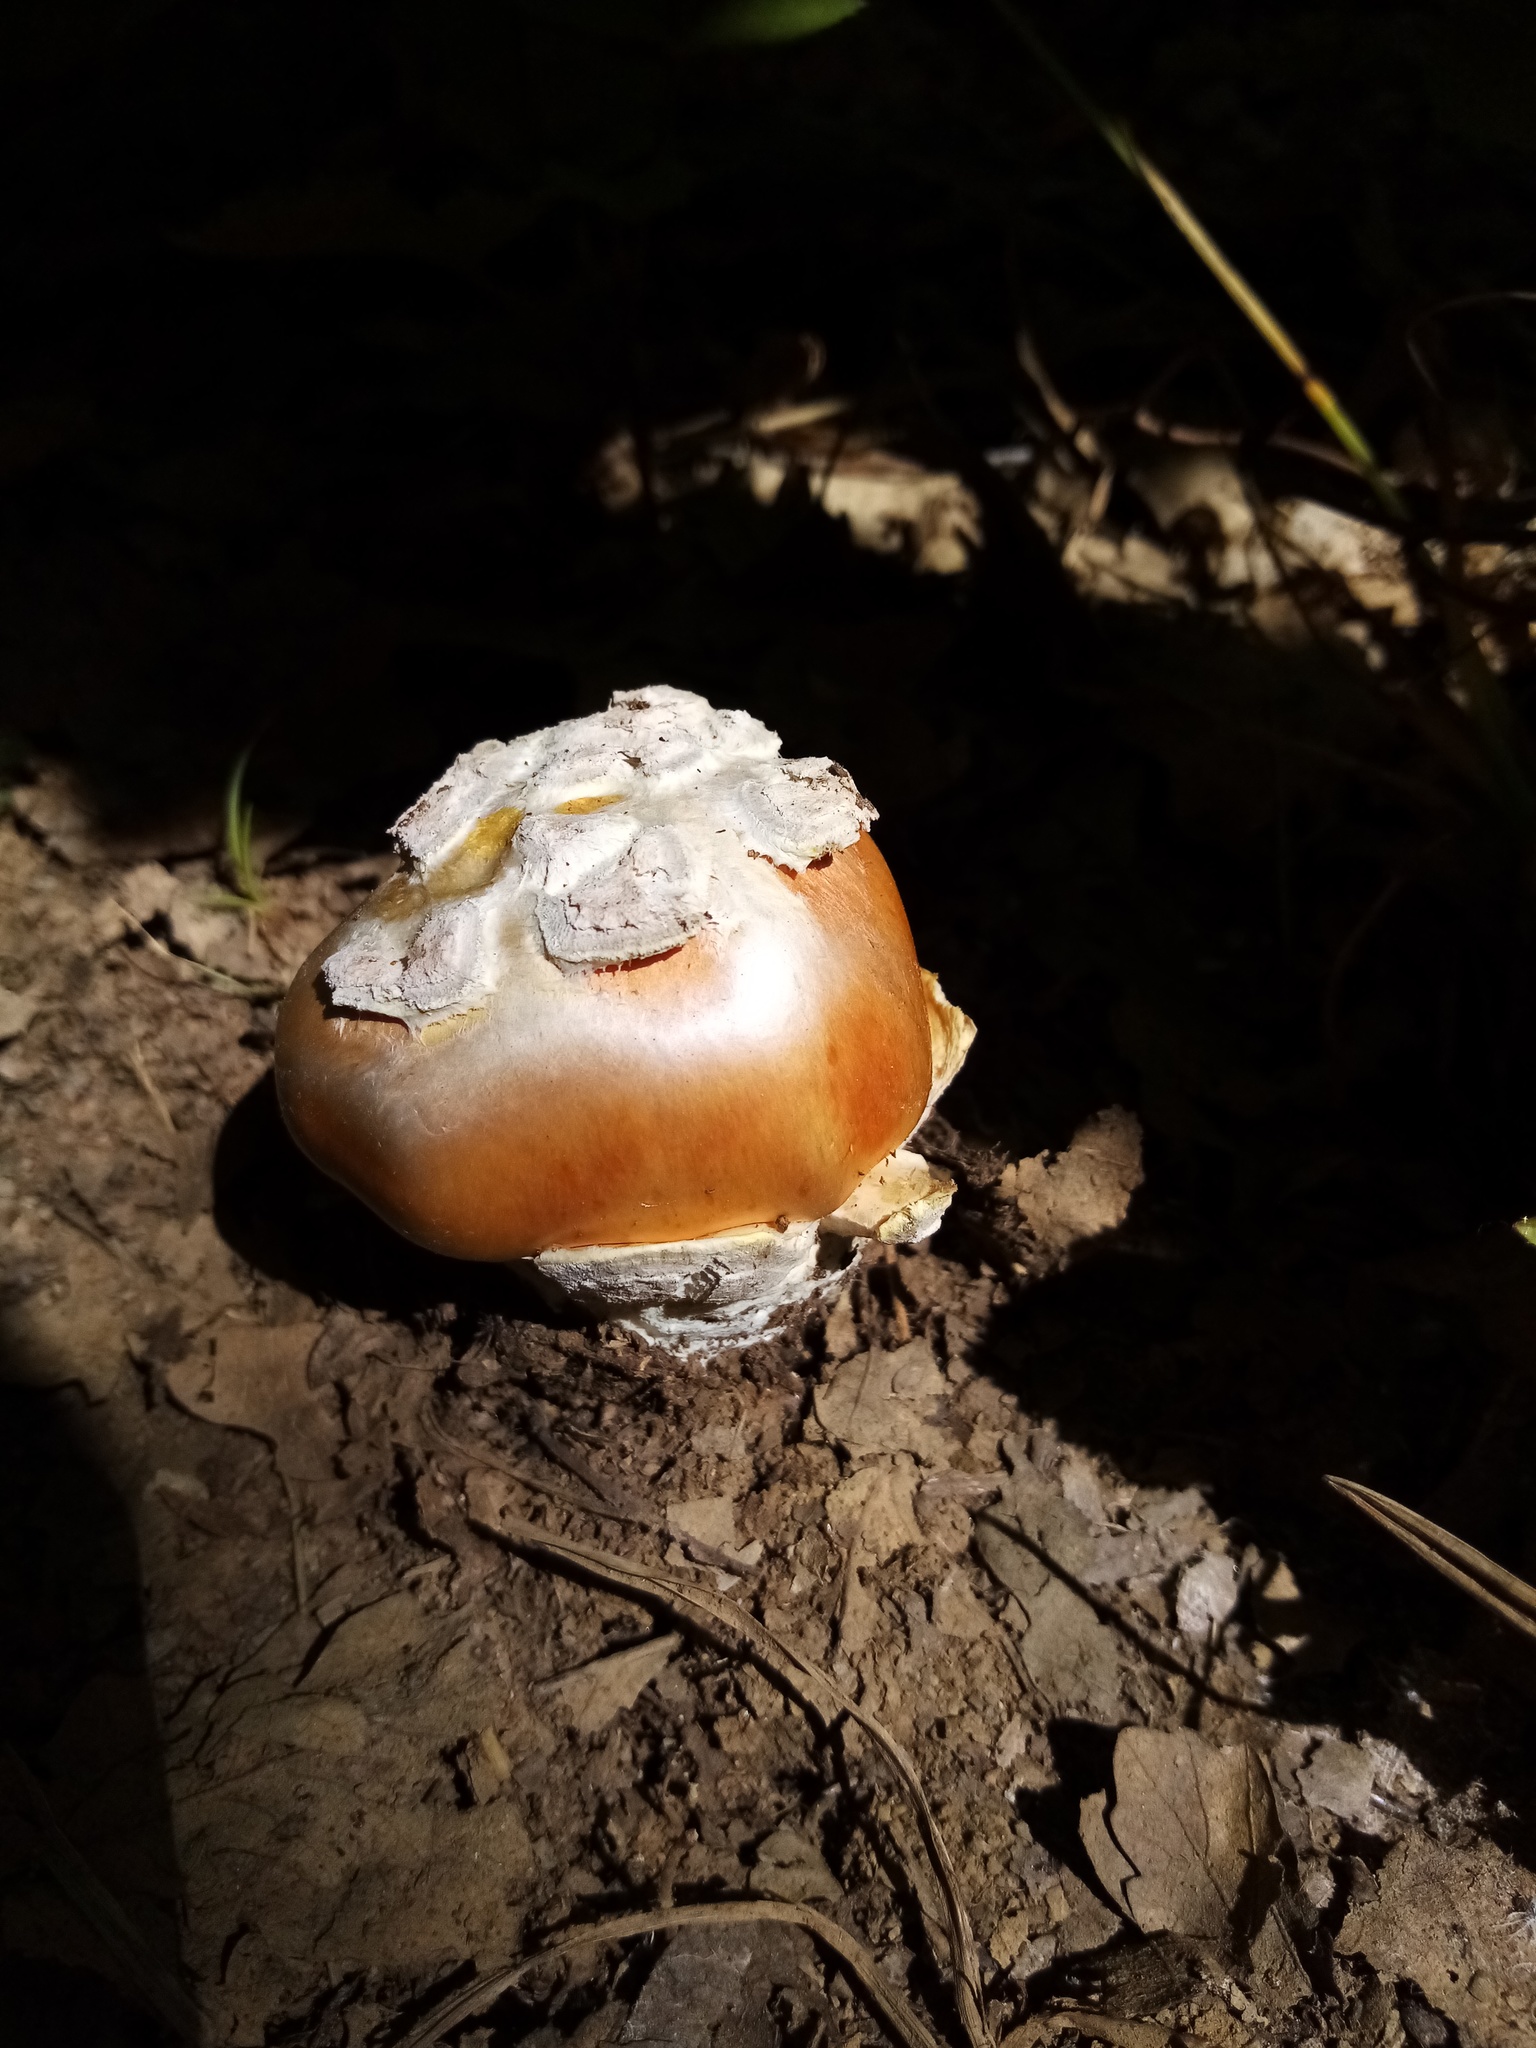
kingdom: Fungi
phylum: Basidiomycota
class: Agaricomycetes
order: Agaricales
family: Amanitaceae
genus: Amanita
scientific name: Amanita caesarea
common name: Caesar's amanita
